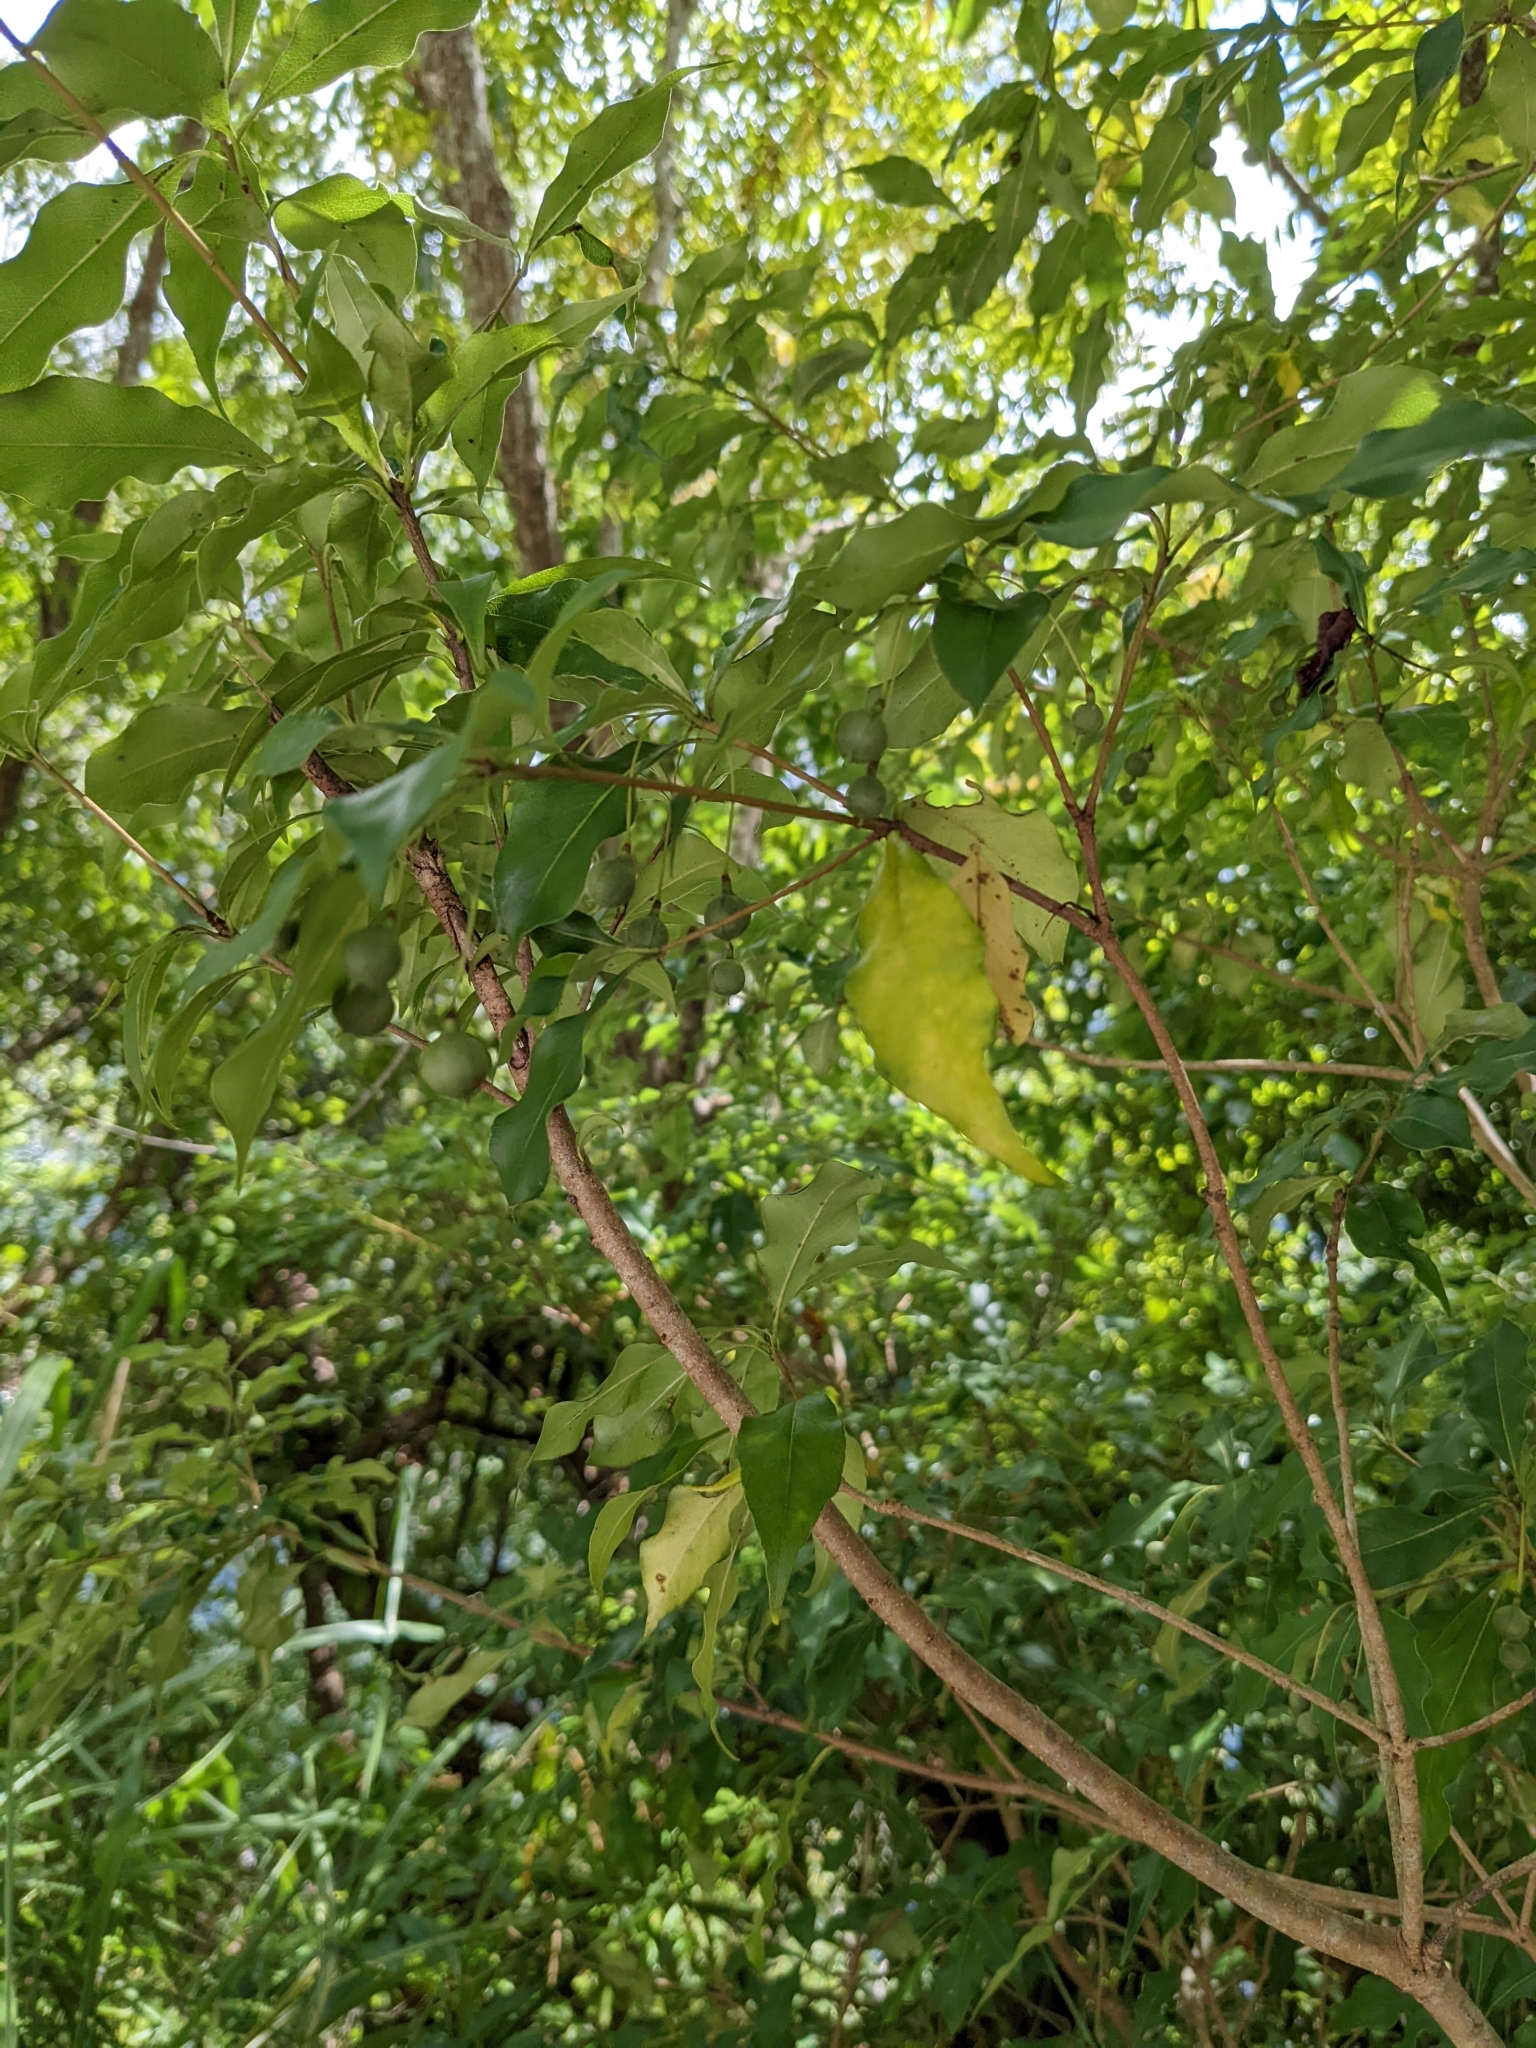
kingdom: Plantae
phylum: Tracheophyta
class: Magnoliopsida
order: Apiales
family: Pittosporaceae
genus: Pittosporum
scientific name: Pittosporum illicioides
